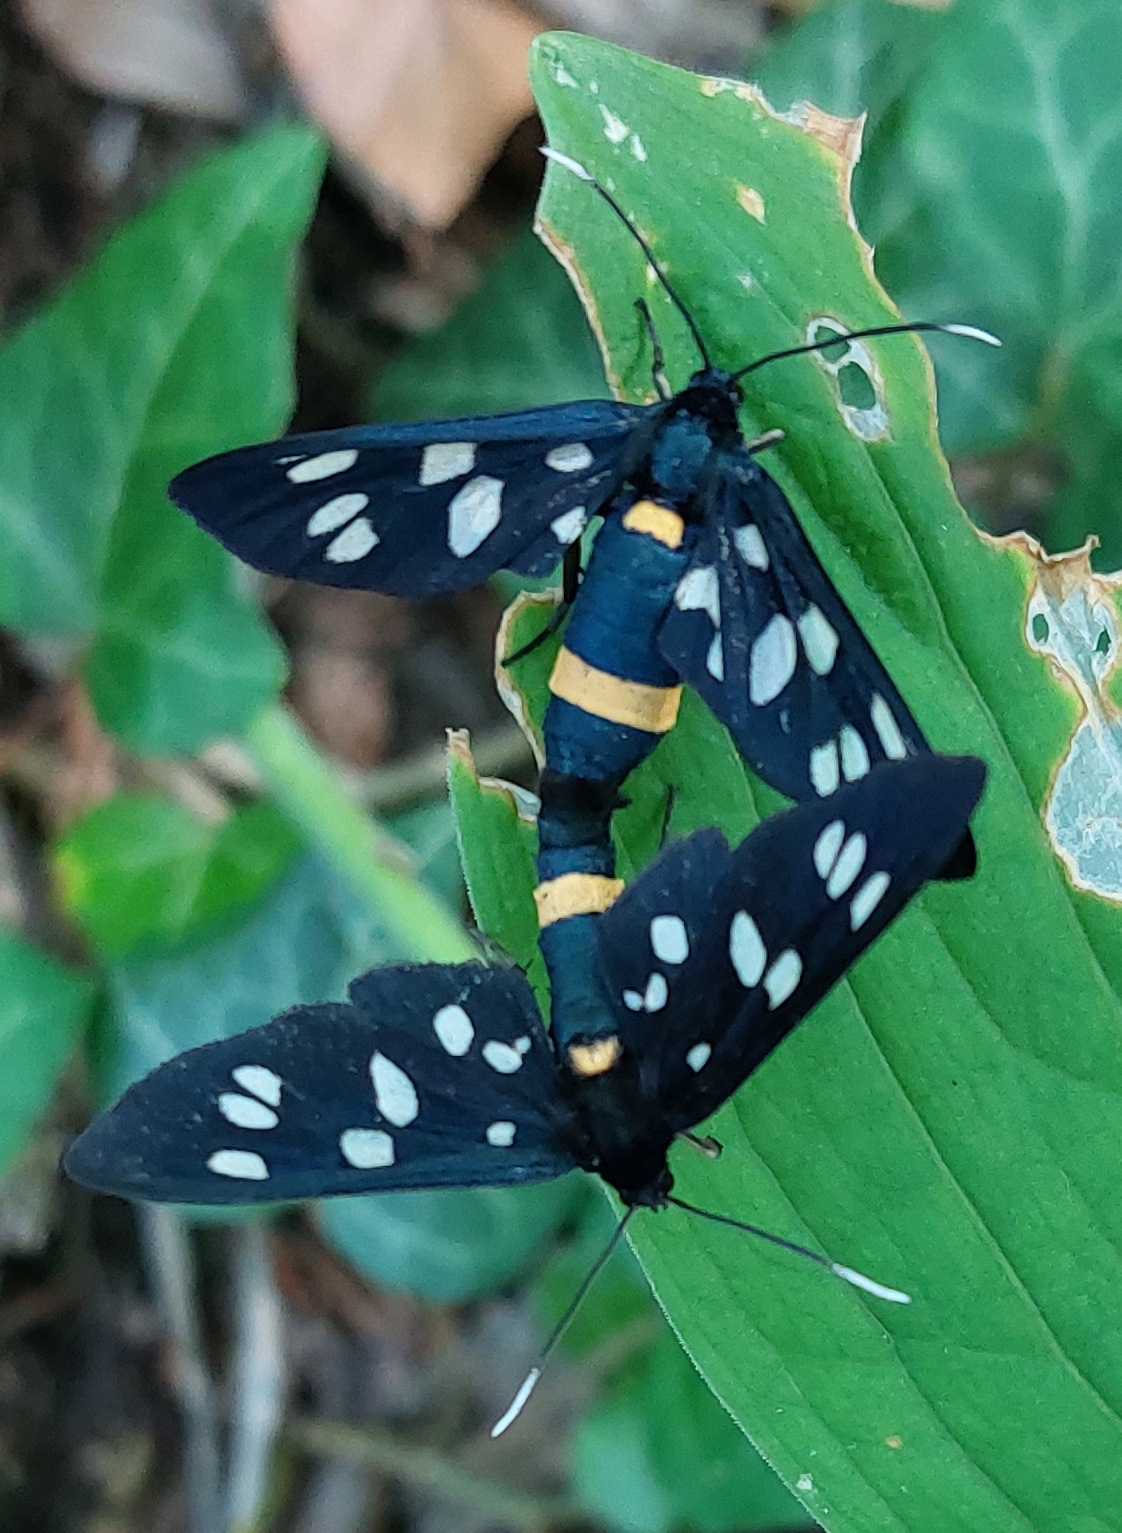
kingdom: Animalia
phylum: Arthropoda
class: Insecta
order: Lepidoptera
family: Erebidae
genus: Amata
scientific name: Amata phegea
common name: Nine-spotted
